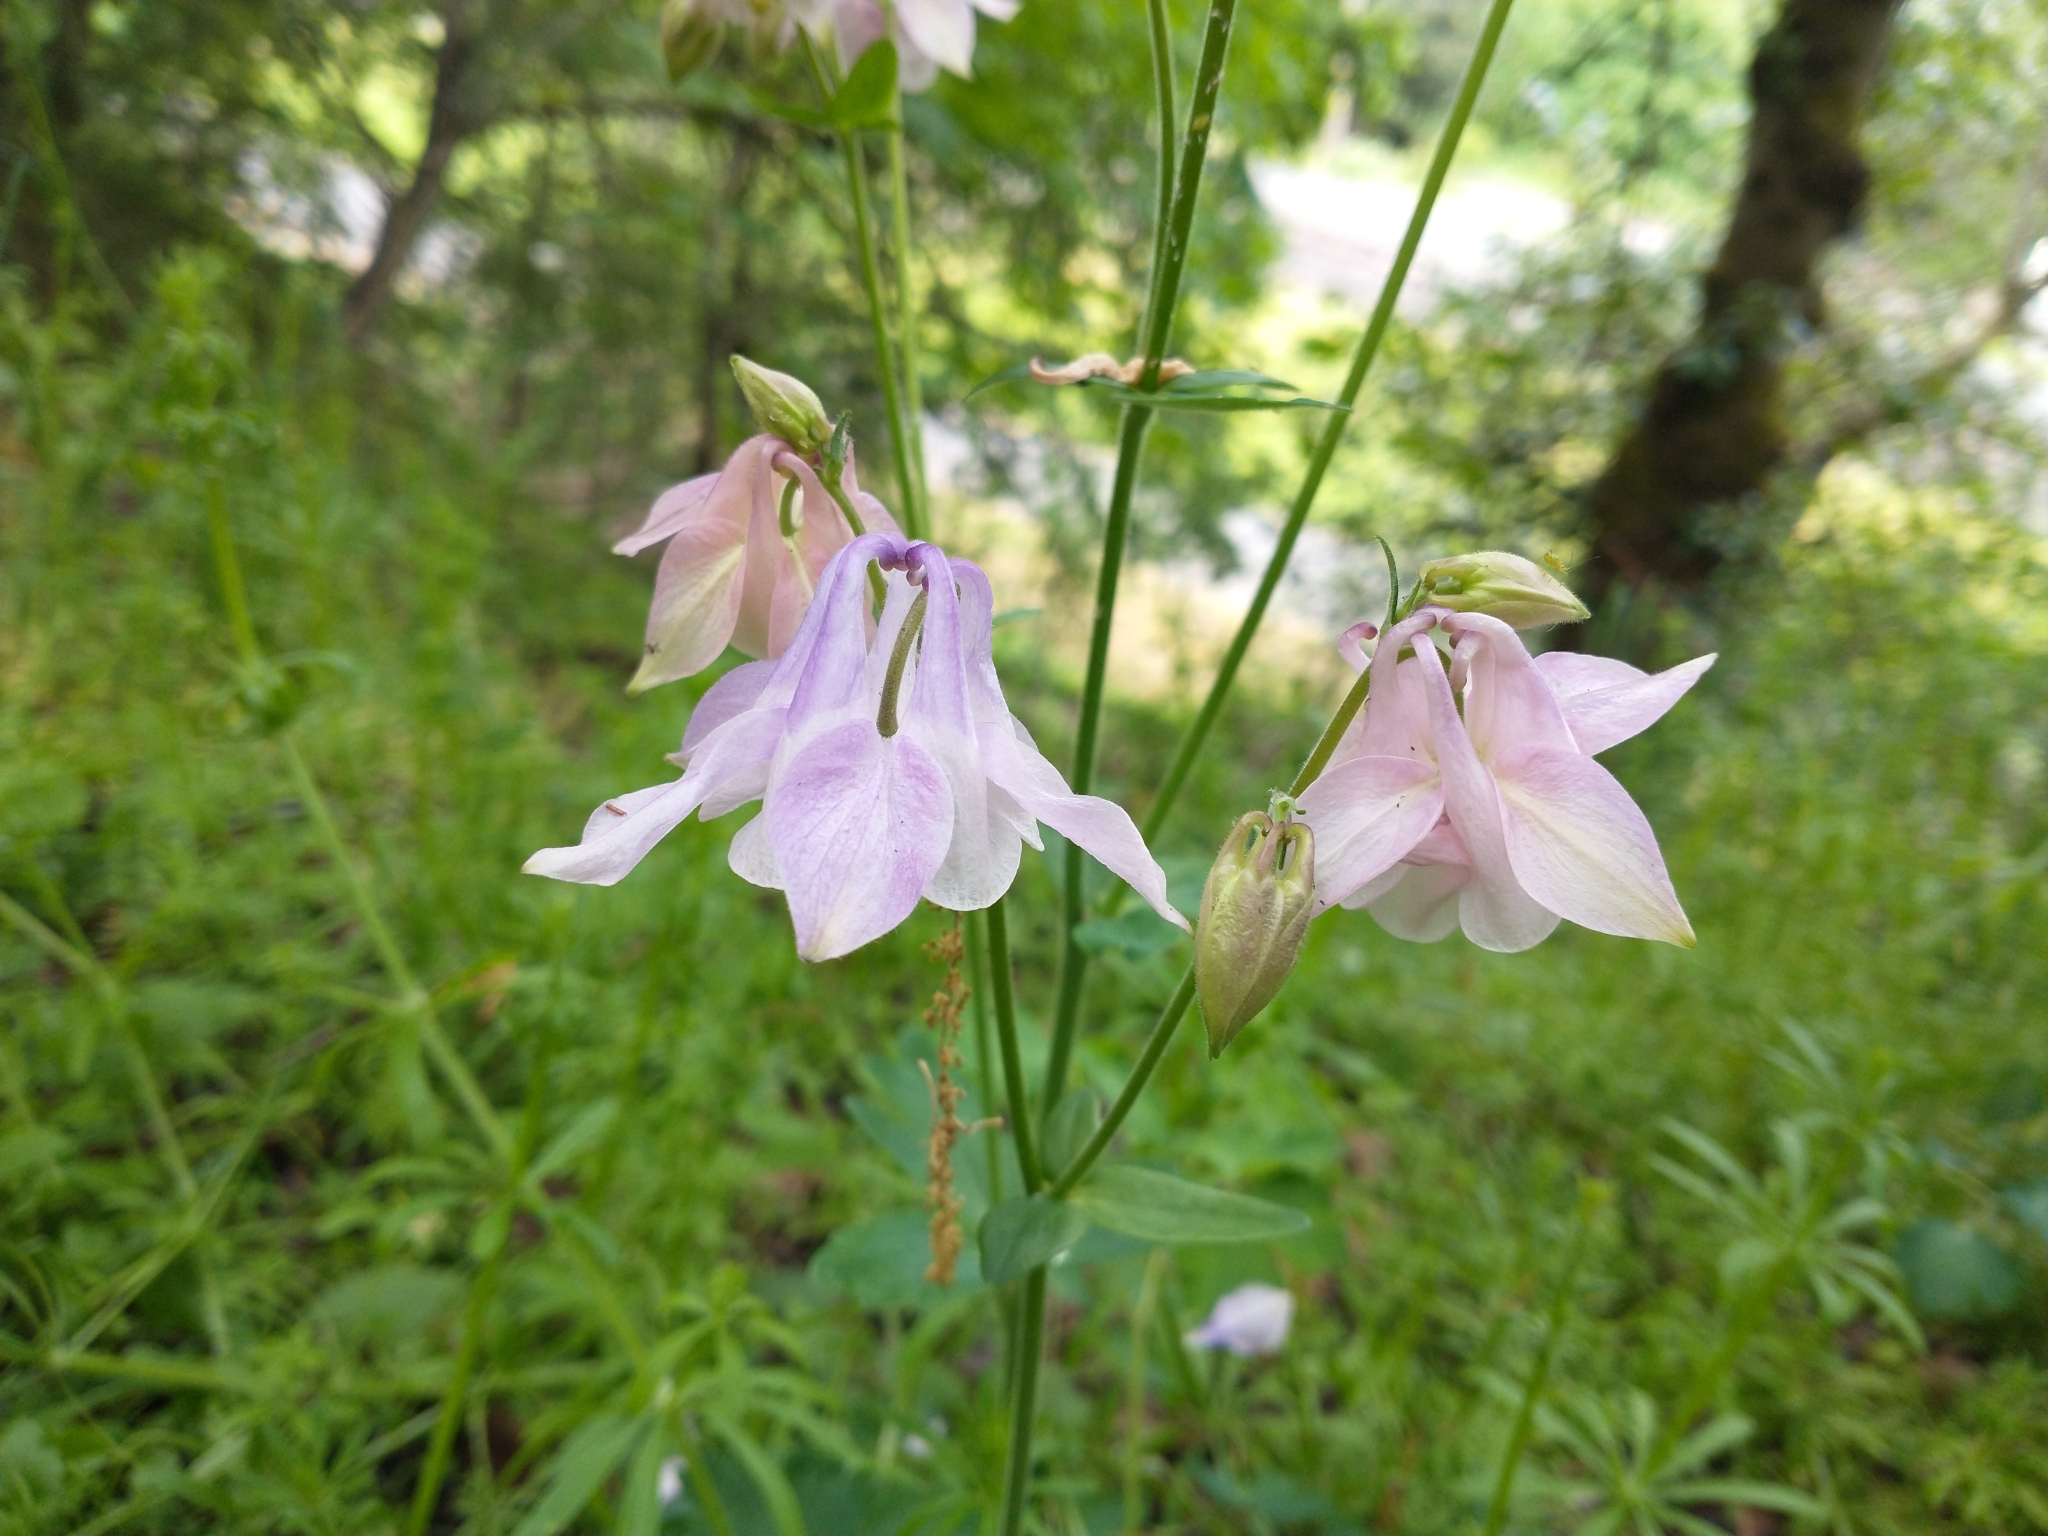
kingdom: Plantae
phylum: Tracheophyta
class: Magnoliopsida
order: Ranunculales
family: Ranunculaceae
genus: Aquilegia
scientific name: Aquilegia vulgaris
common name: Columbine
